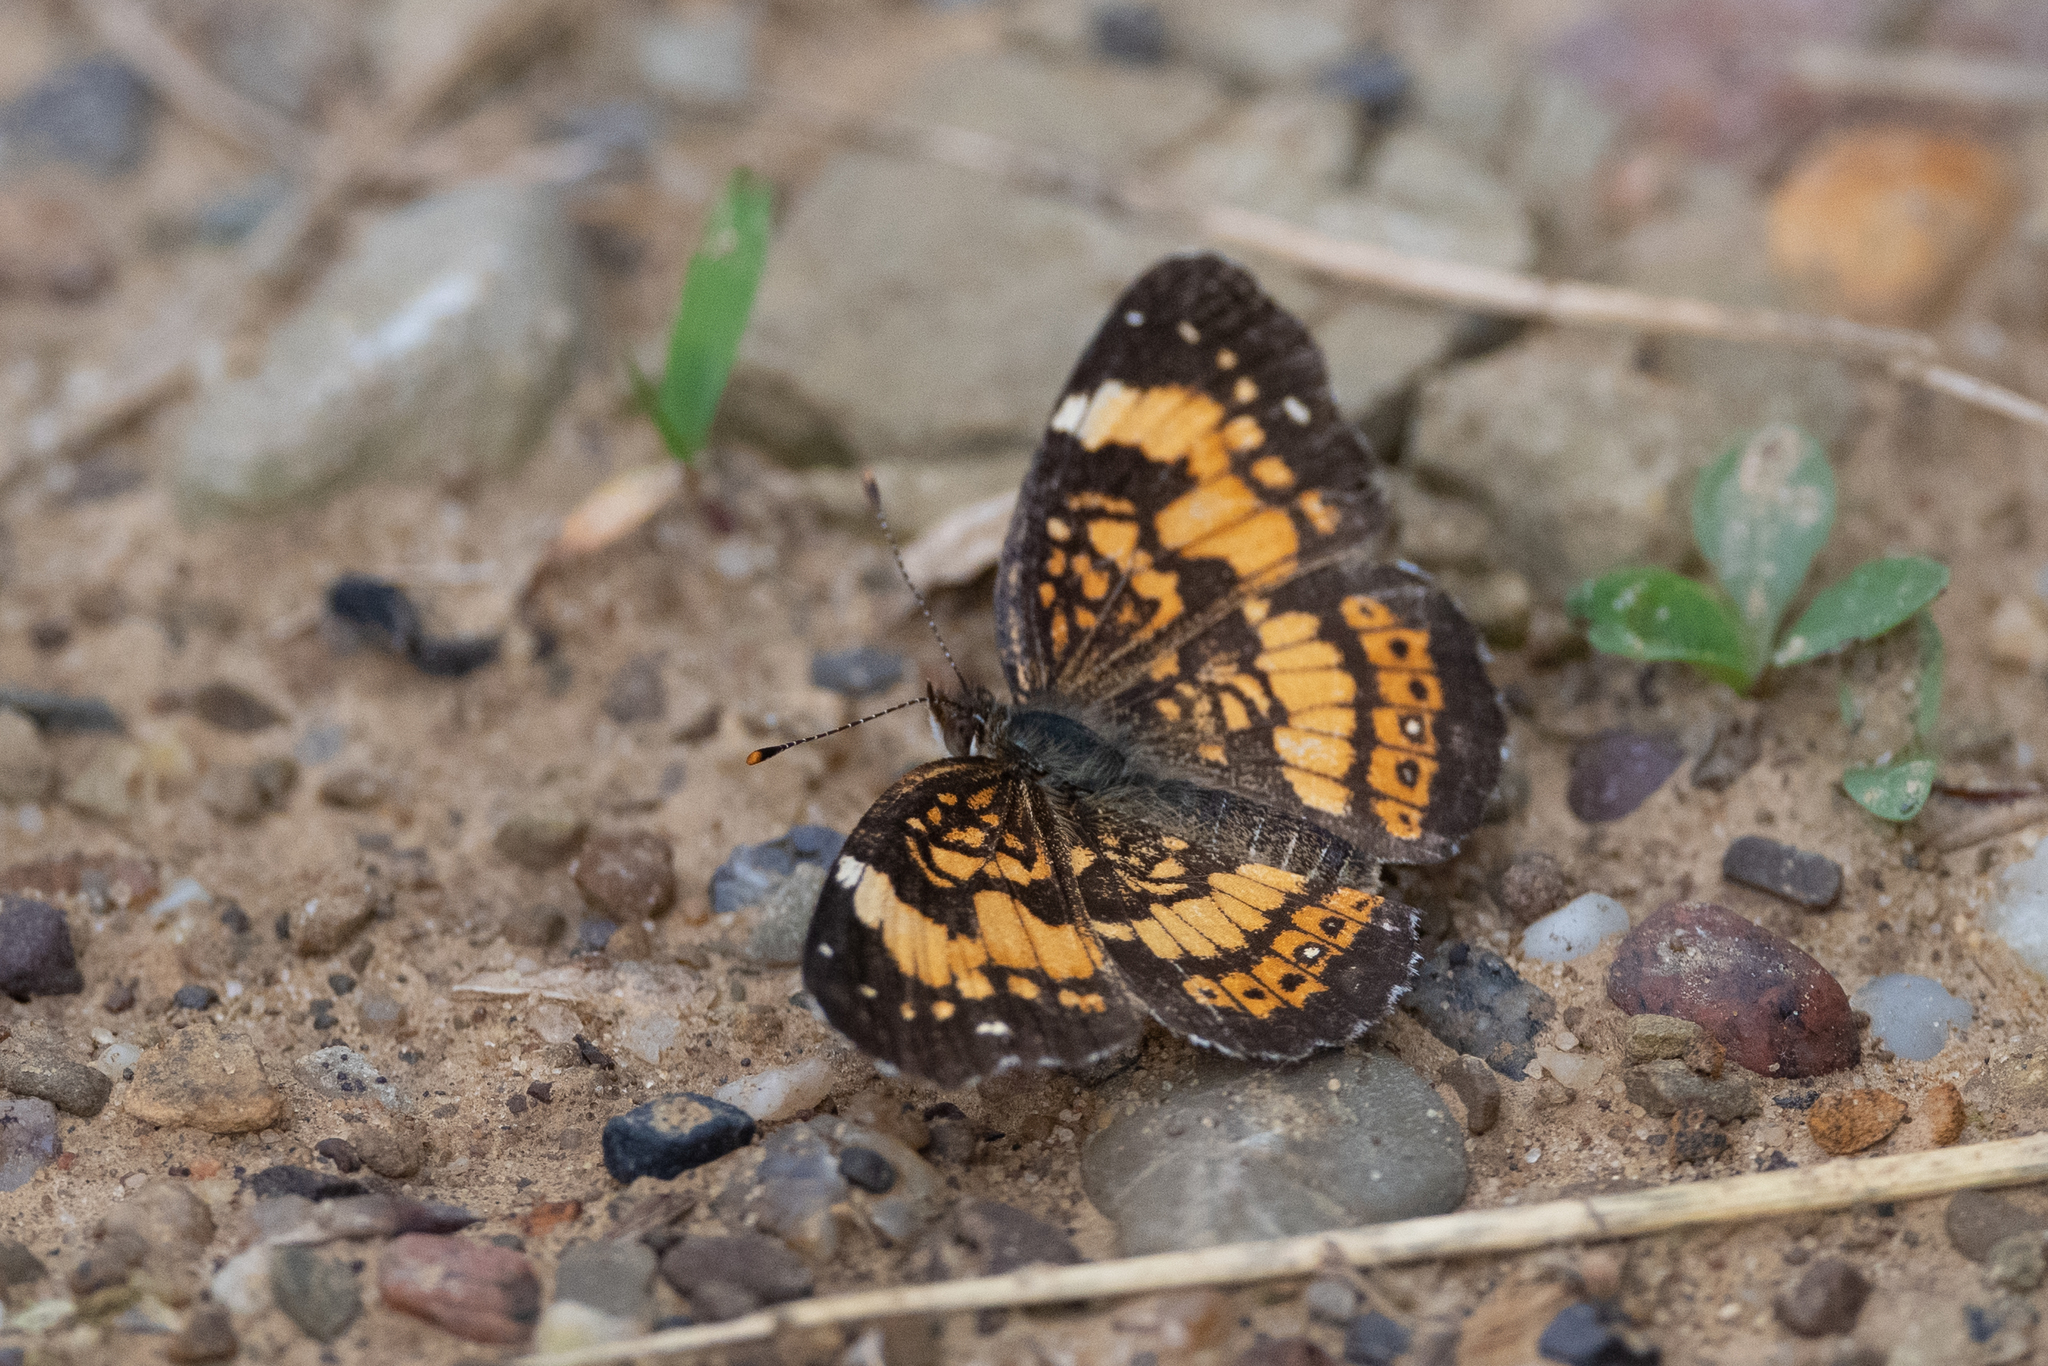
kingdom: Animalia
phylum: Arthropoda
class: Insecta
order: Lepidoptera
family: Nymphalidae
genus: Chlosyne
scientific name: Chlosyne nycteis
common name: Silvery checkerspot
